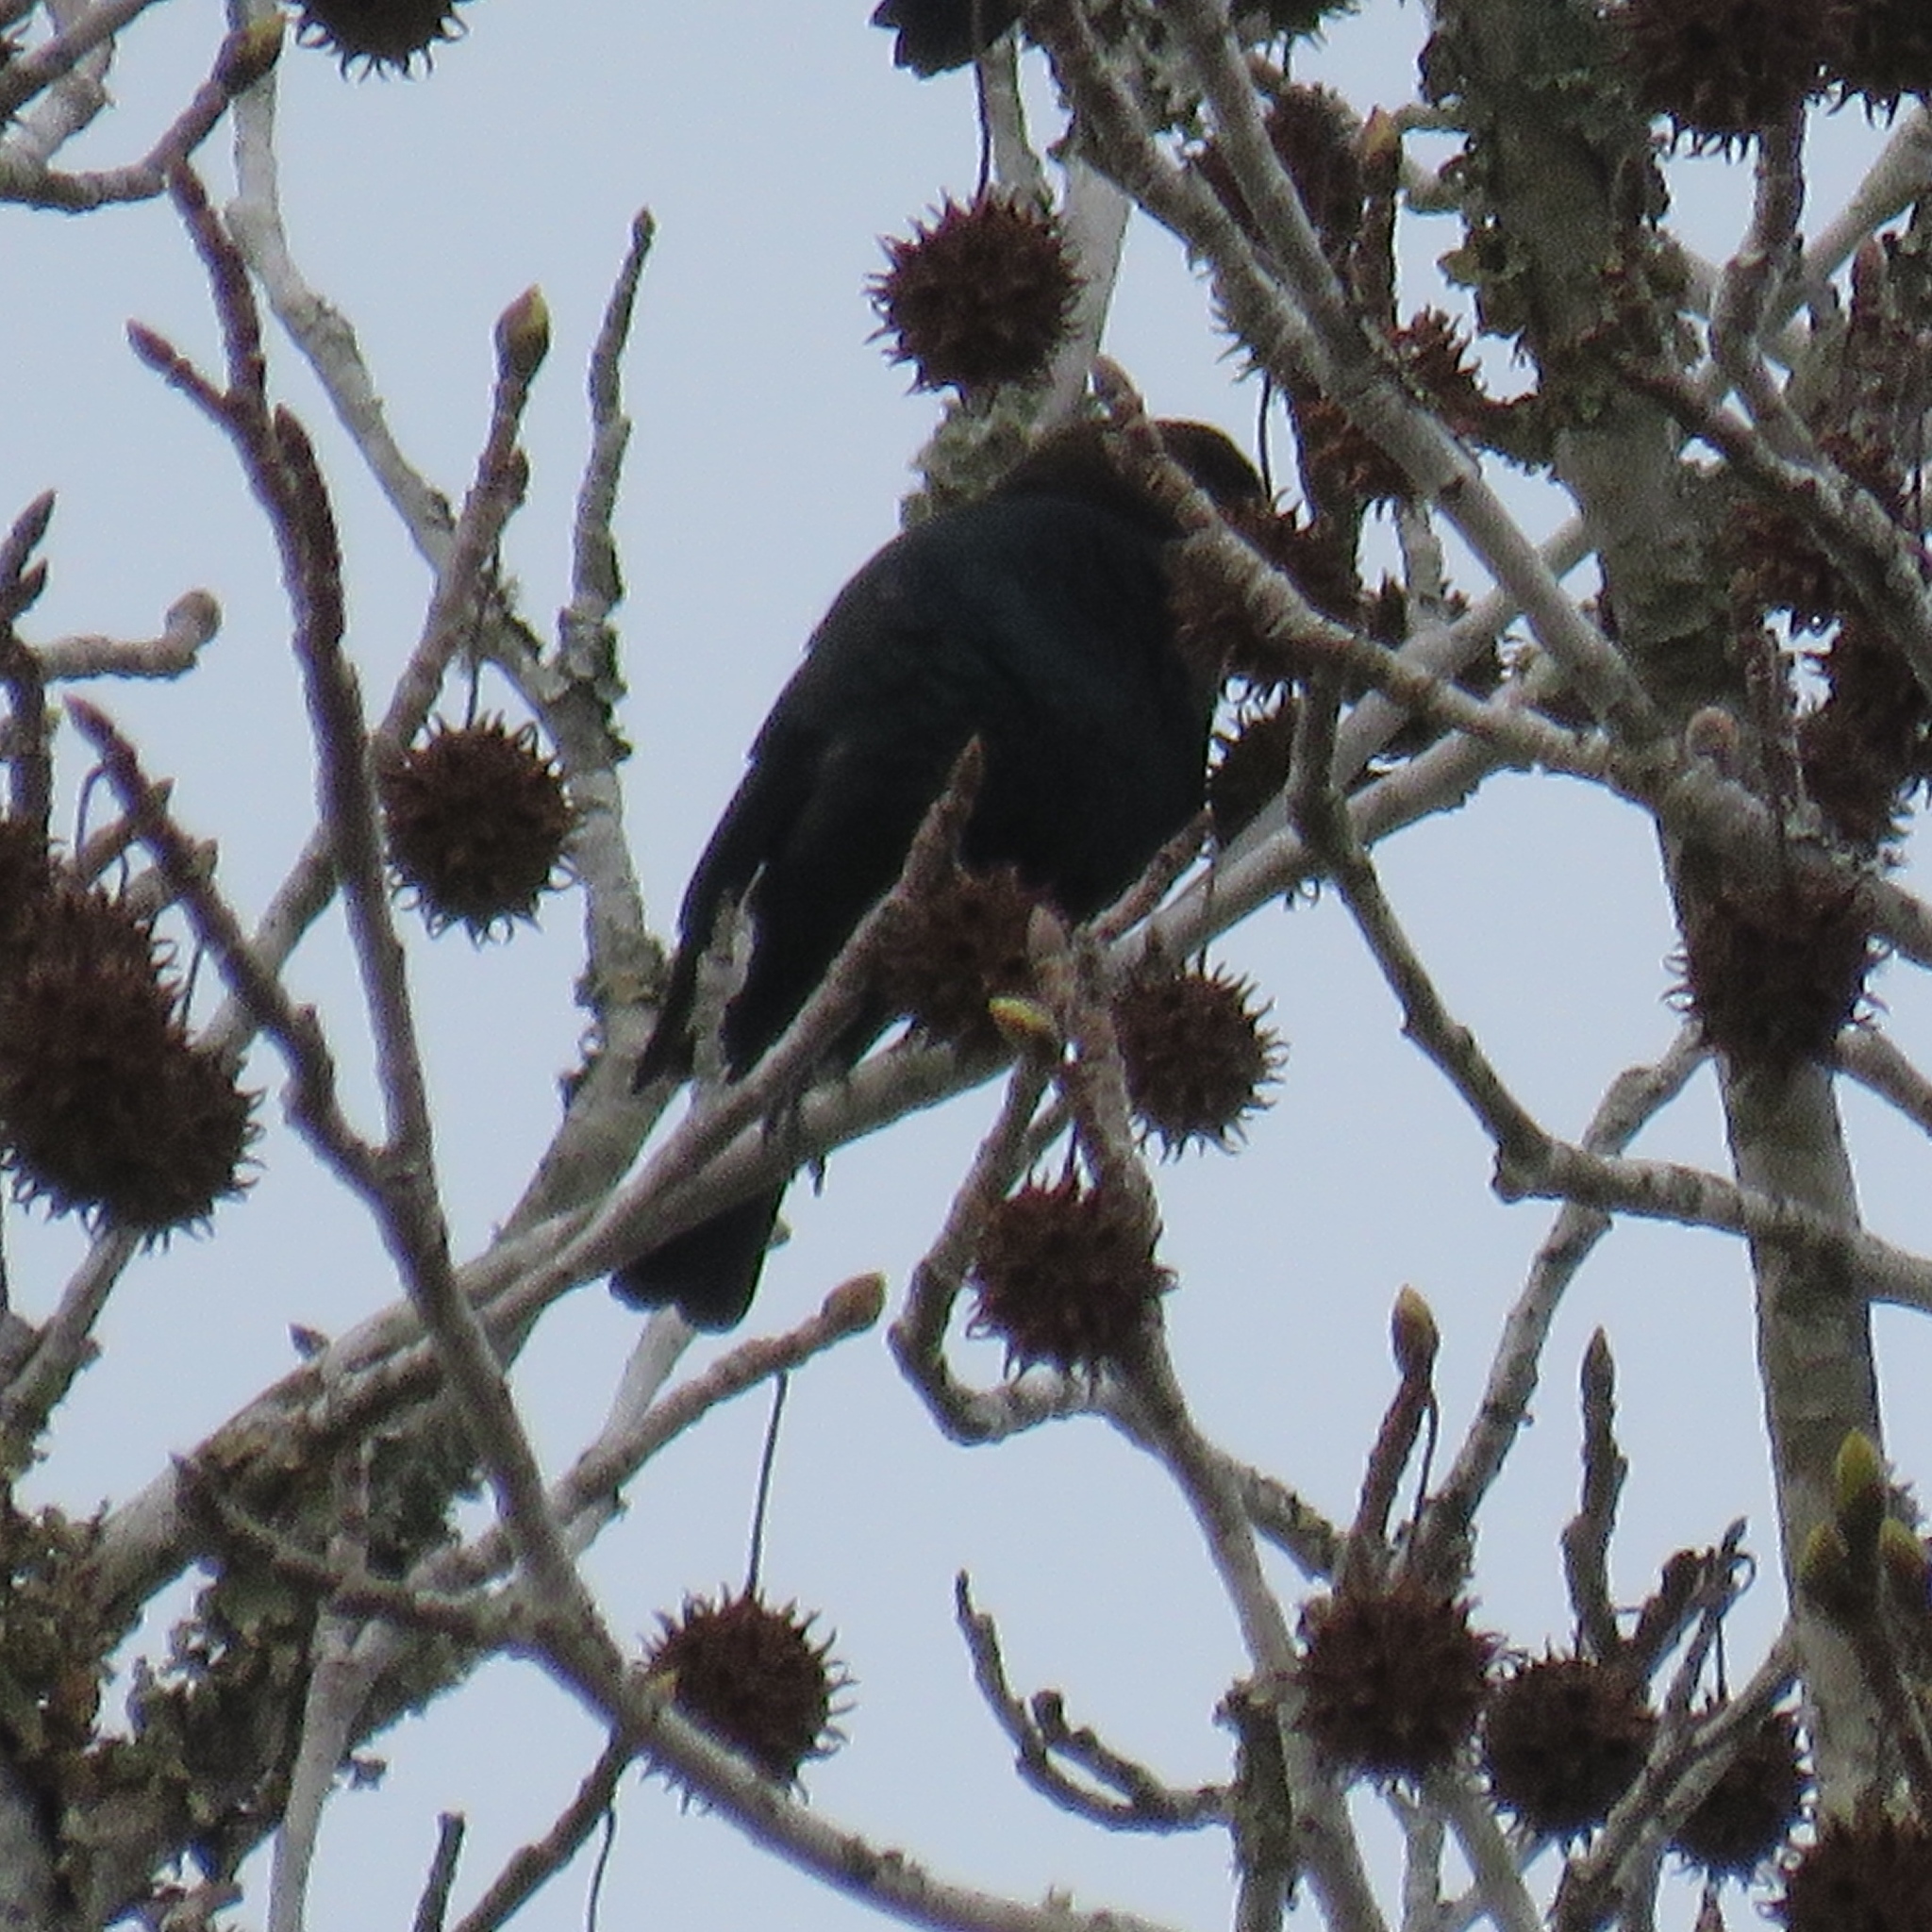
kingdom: Animalia
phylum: Chordata
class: Aves
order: Passeriformes
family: Icteridae
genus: Molothrus
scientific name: Molothrus ater
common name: Brown-headed cowbird
